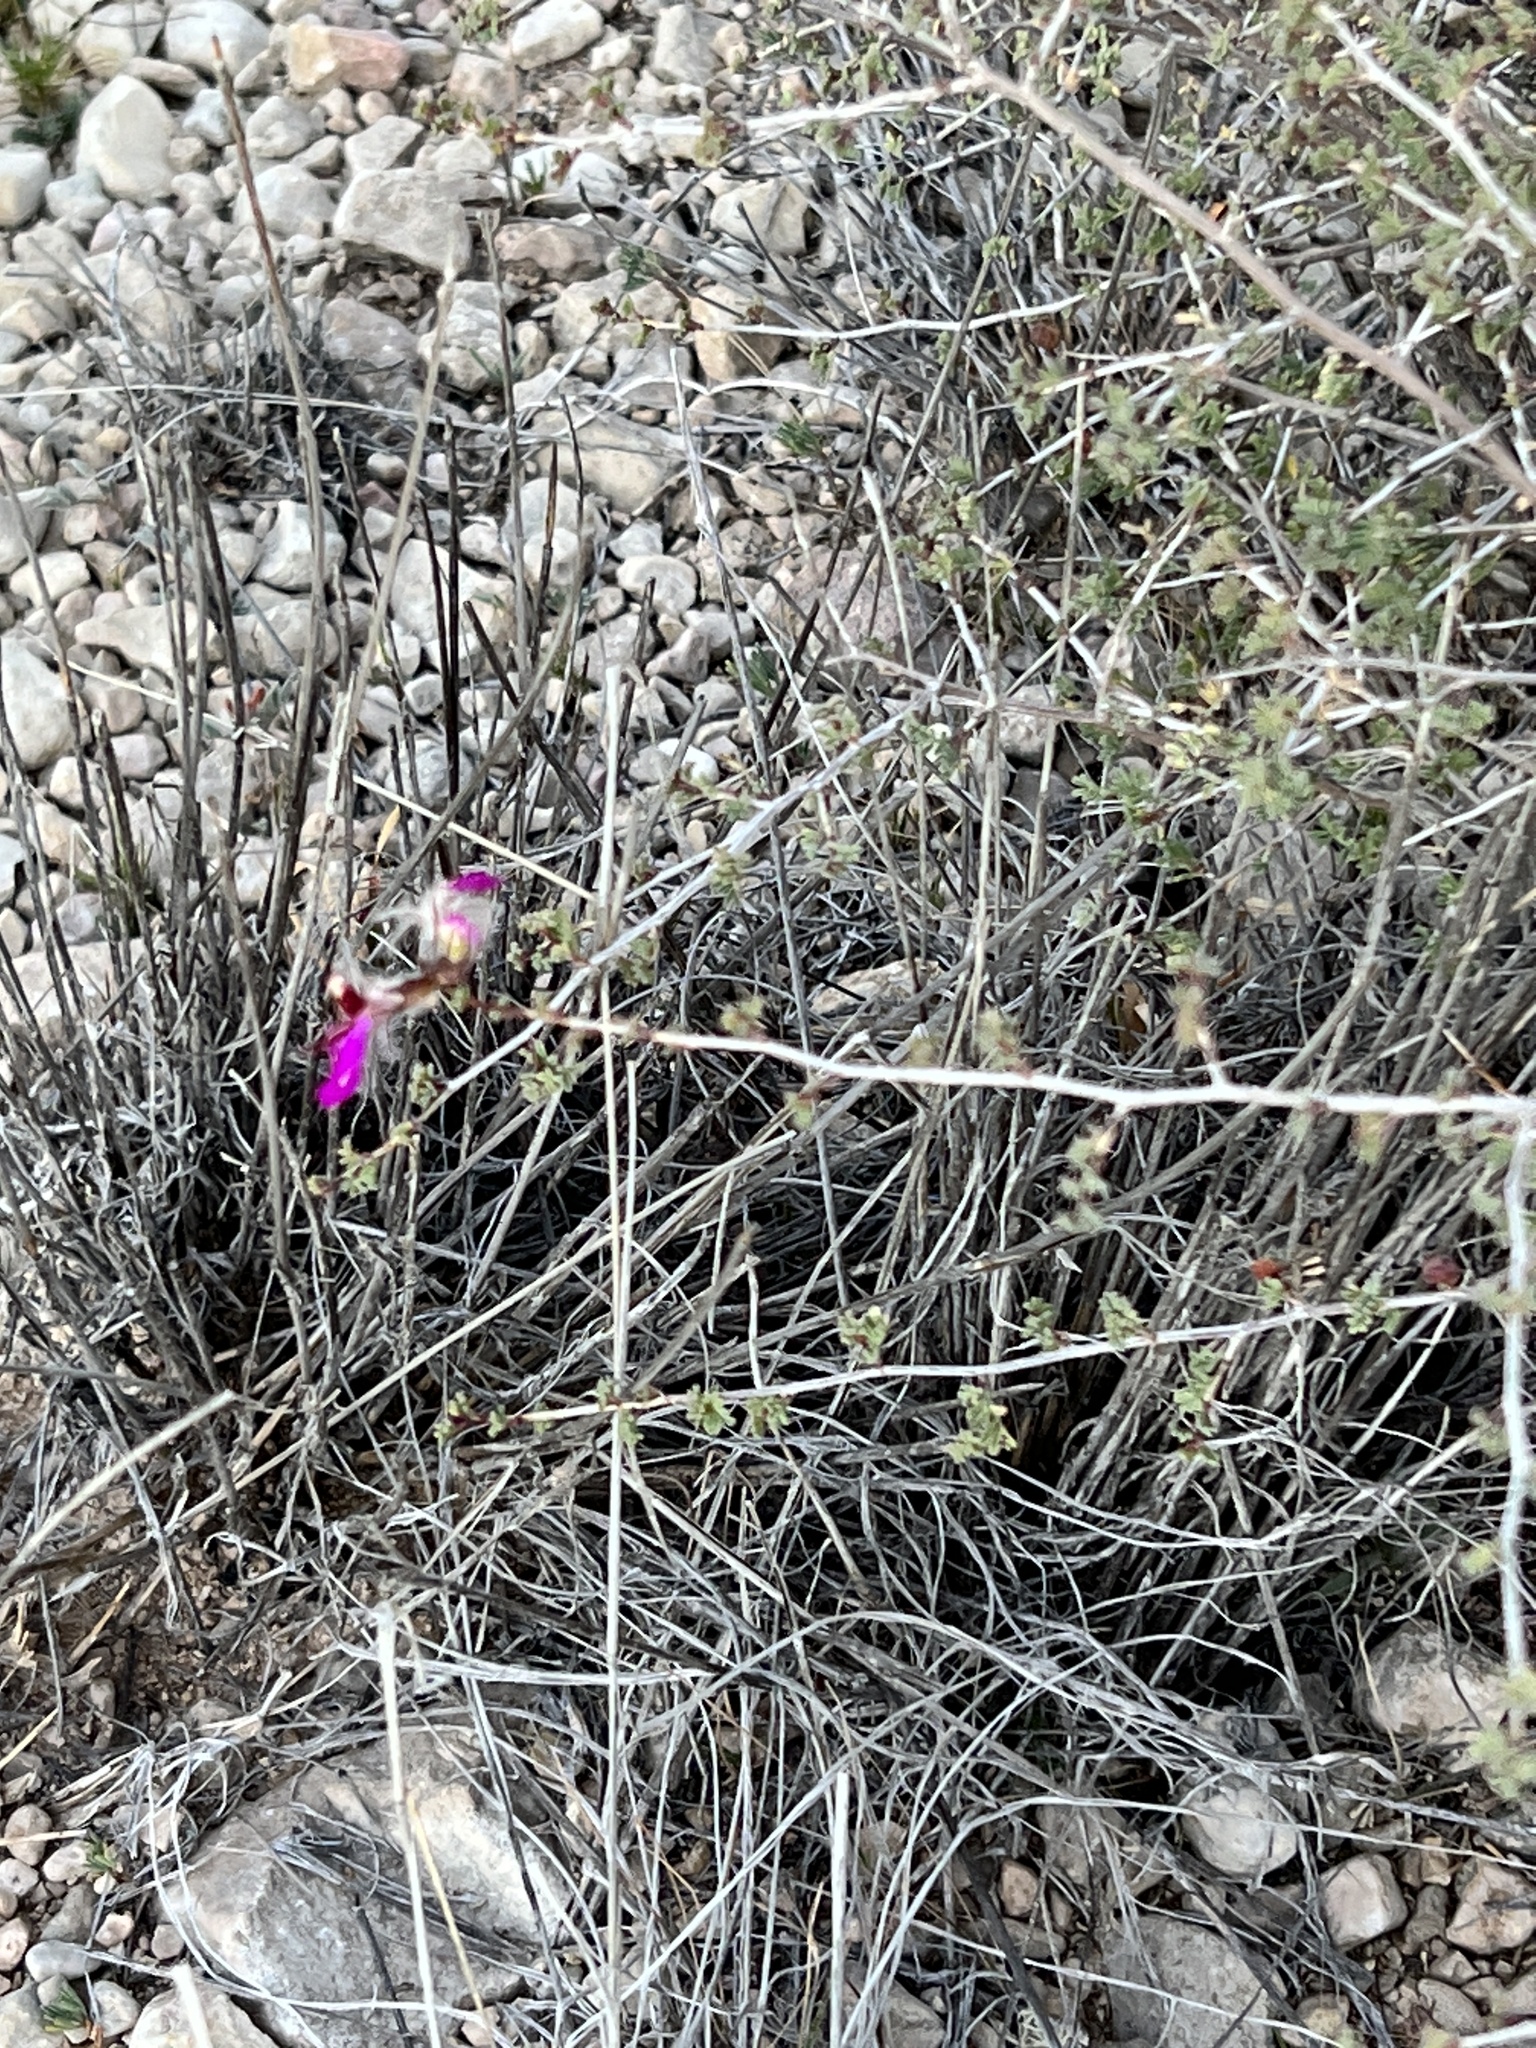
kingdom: Plantae
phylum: Tracheophyta
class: Magnoliopsida
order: Fabales
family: Fabaceae
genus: Dalea
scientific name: Dalea formosa
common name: Feather-plume dalea
